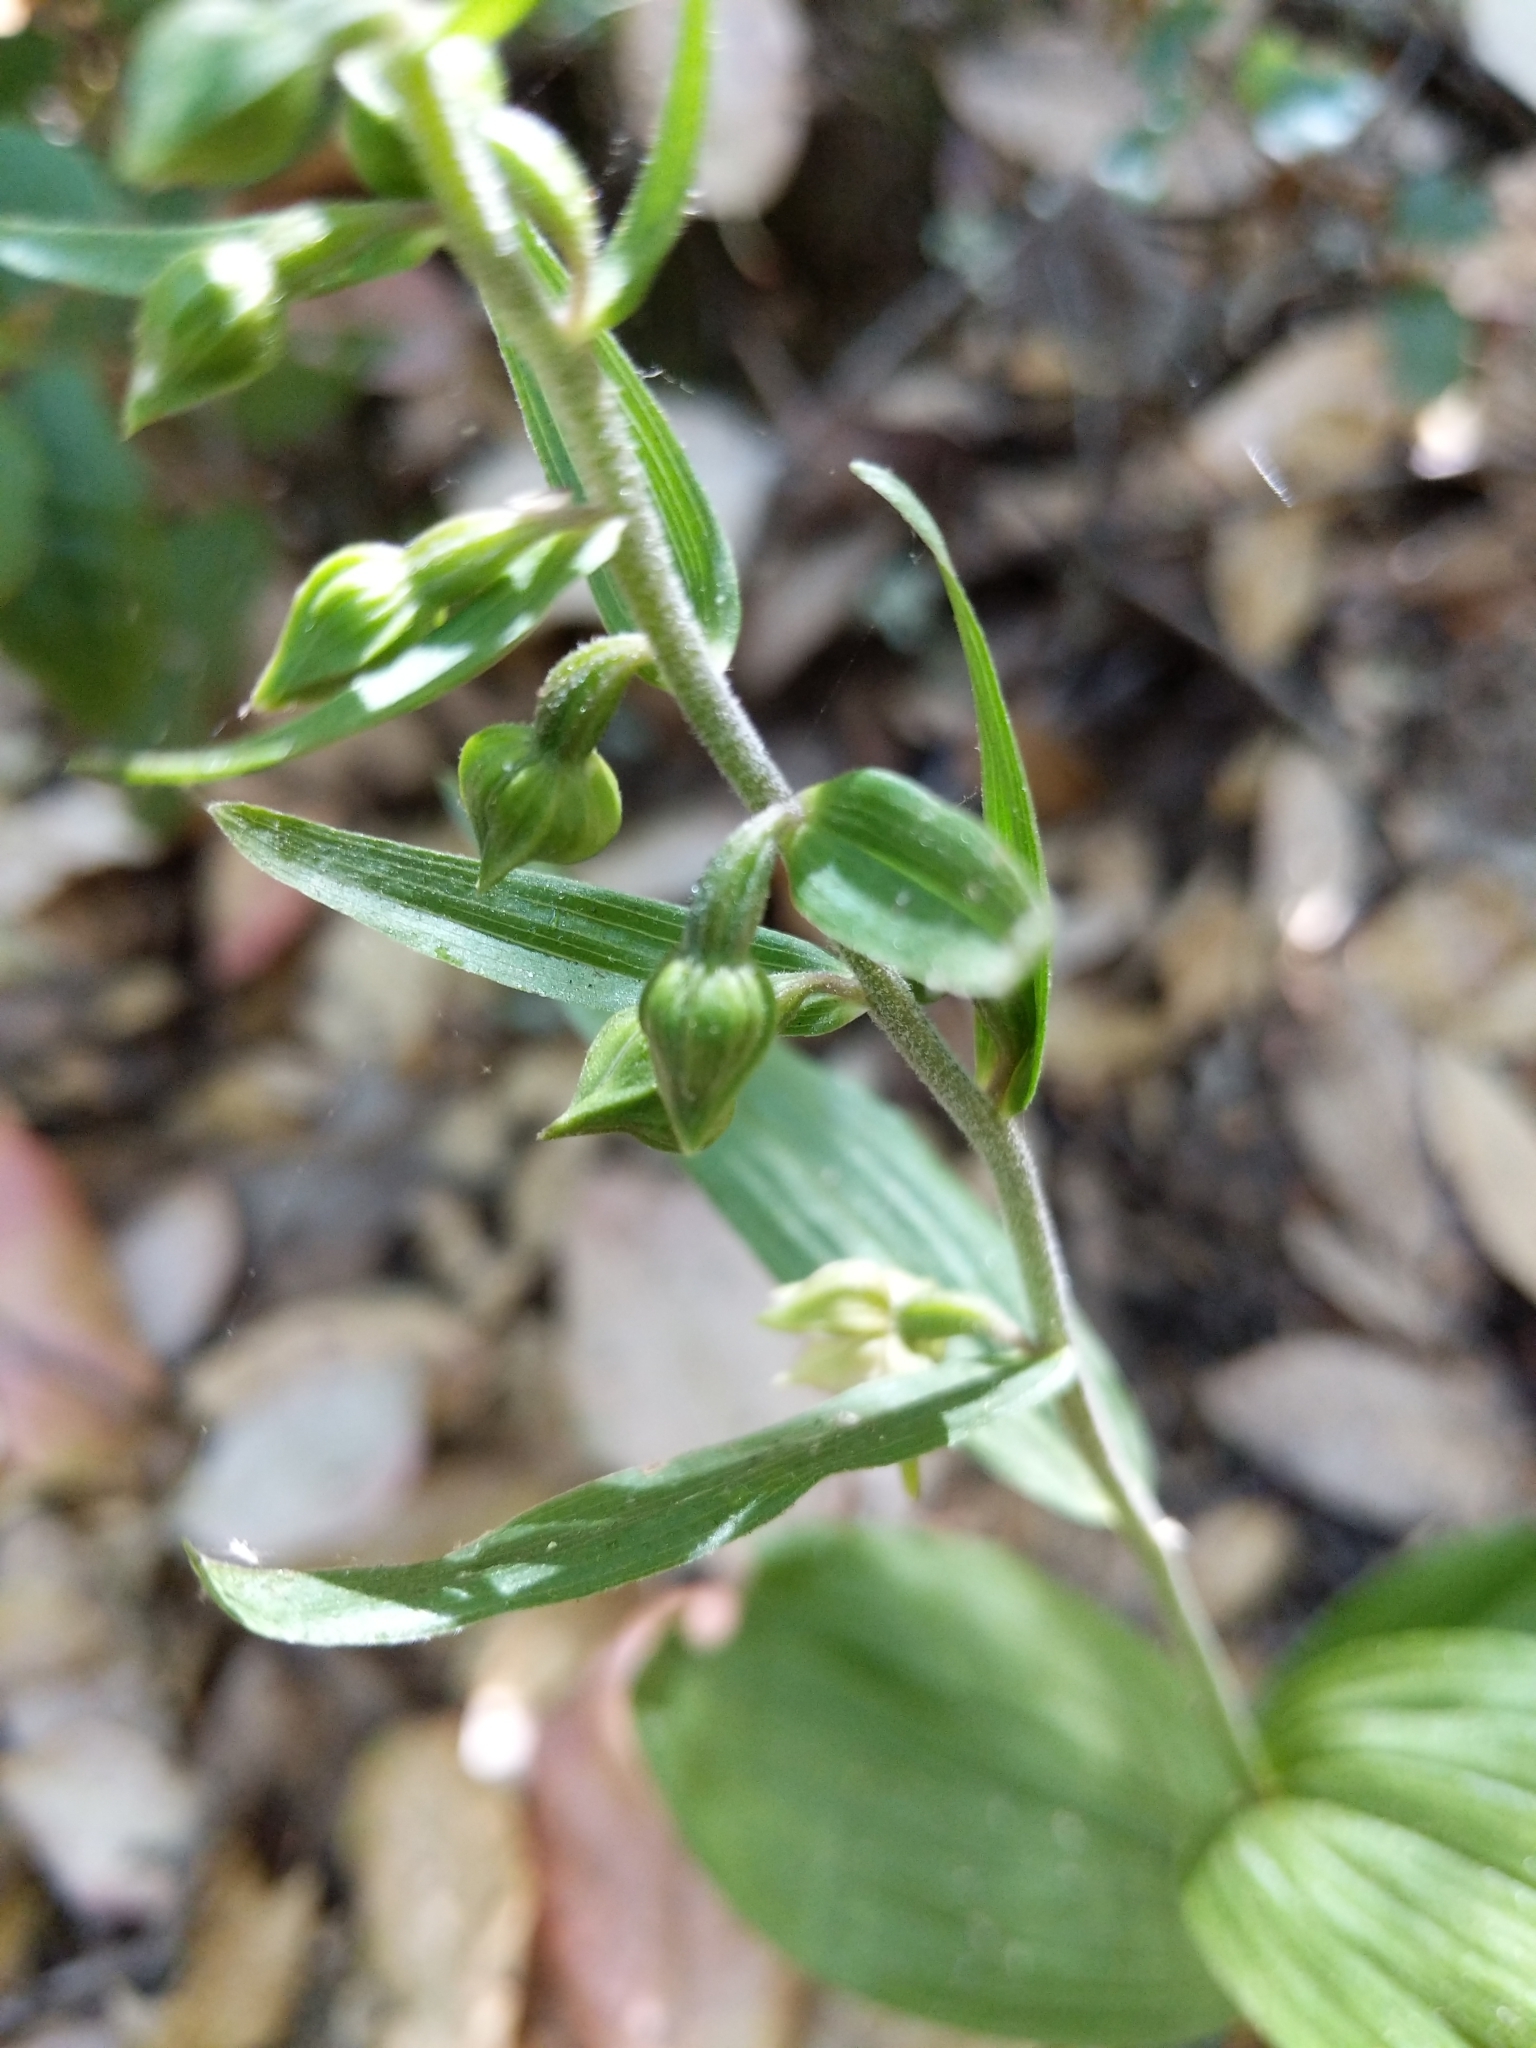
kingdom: Plantae
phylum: Tracheophyta
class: Liliopsida
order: Asparagales
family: Orchidaceae
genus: Epipactis
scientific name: Epipactis helleborine
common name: Broad-leaved helleborine
